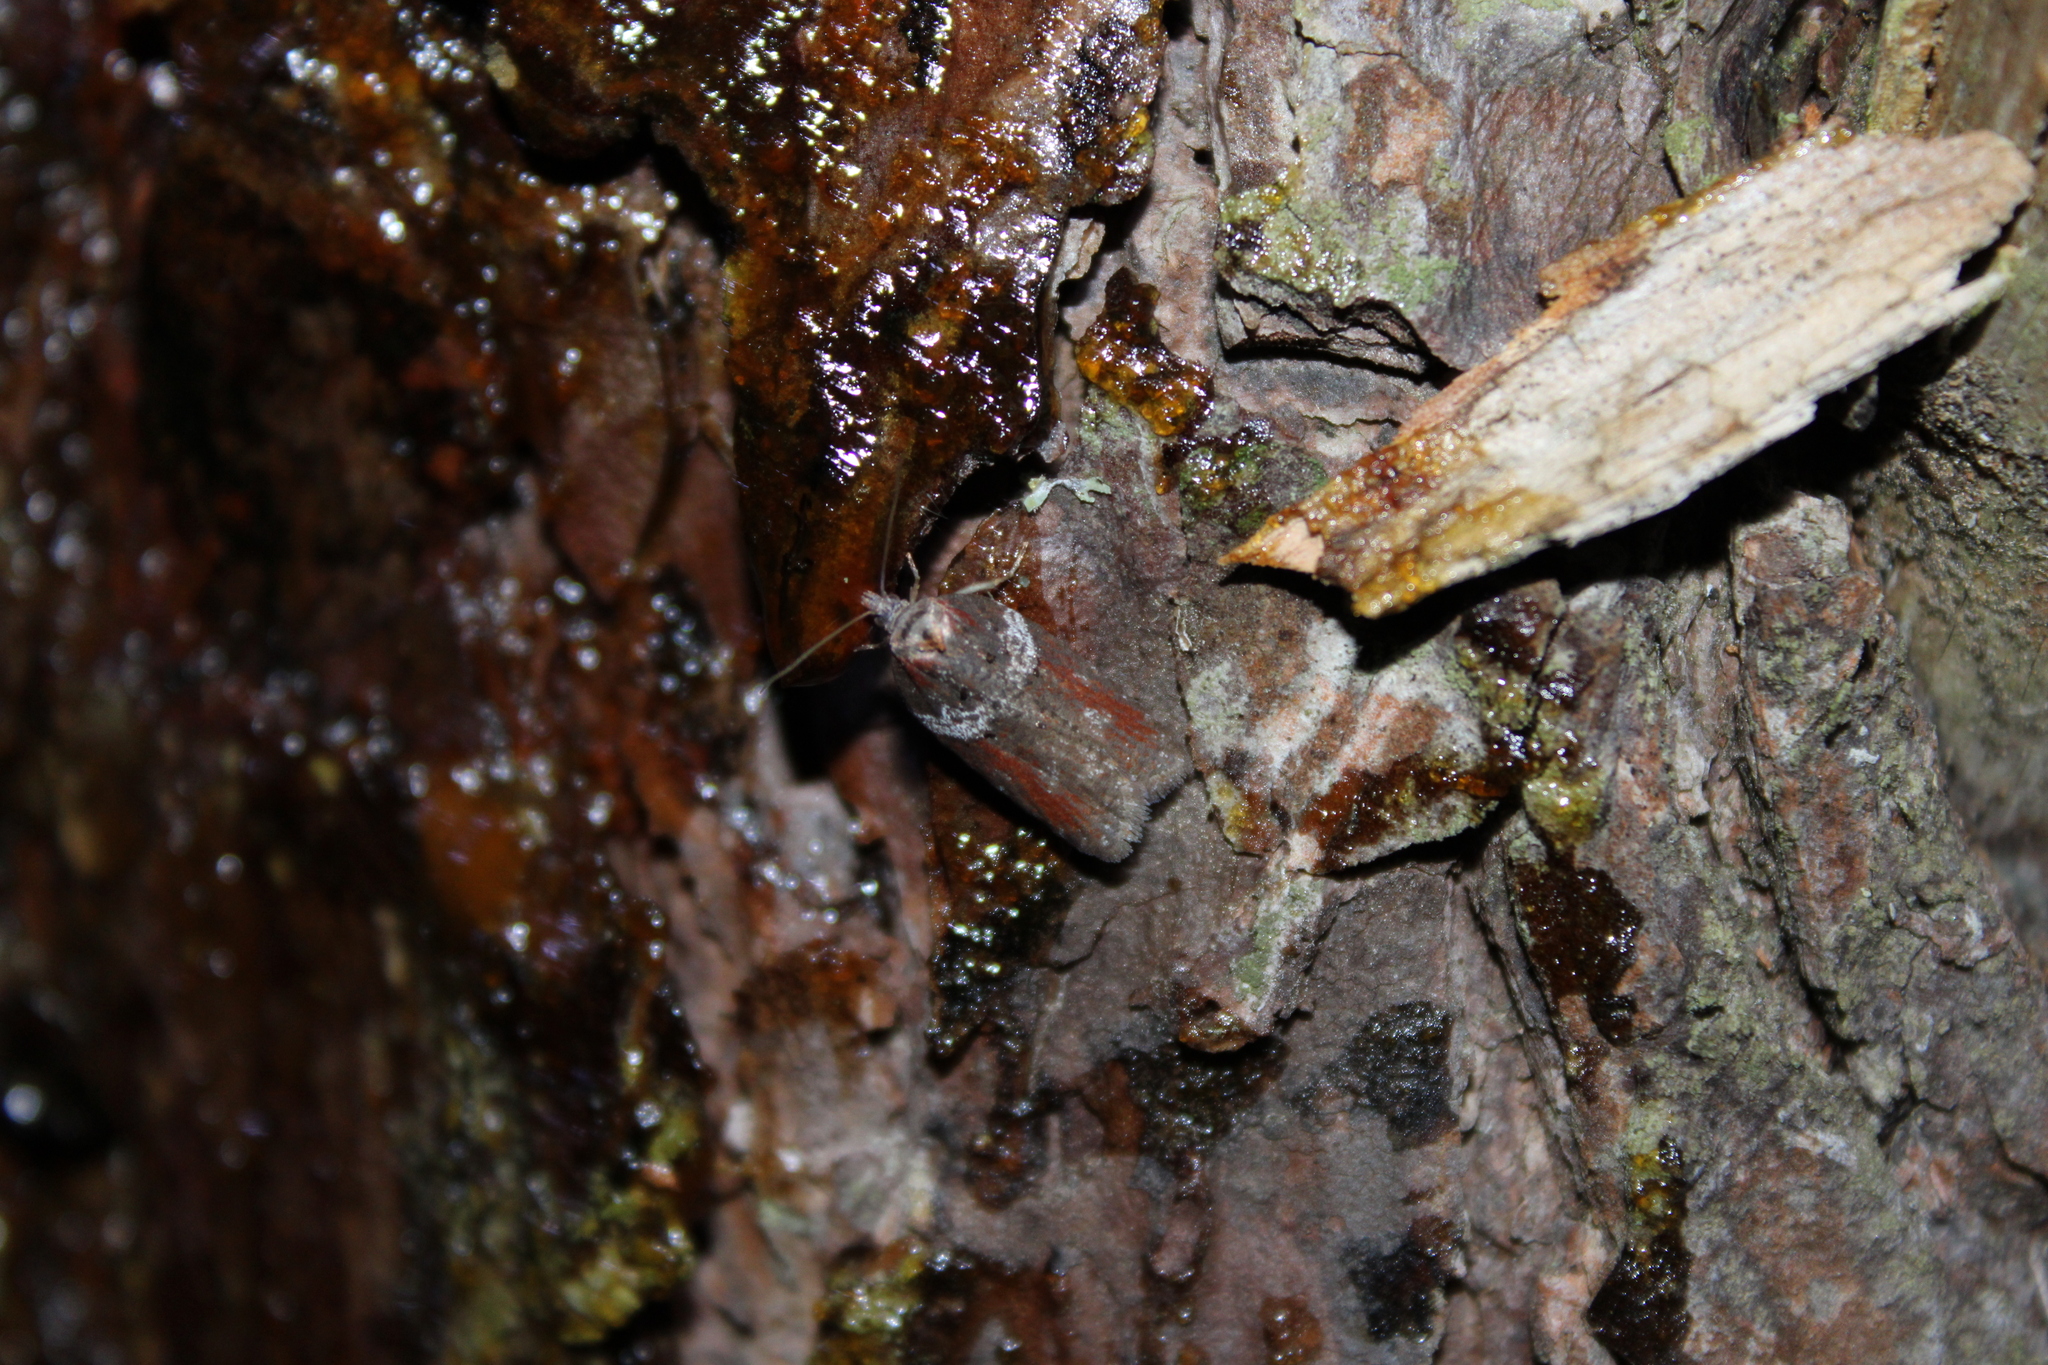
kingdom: Animalia
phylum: Arthropoda
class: Insecta
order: Lepidoptera
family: Tortricidae
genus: Acleris
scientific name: Acleris celiana
